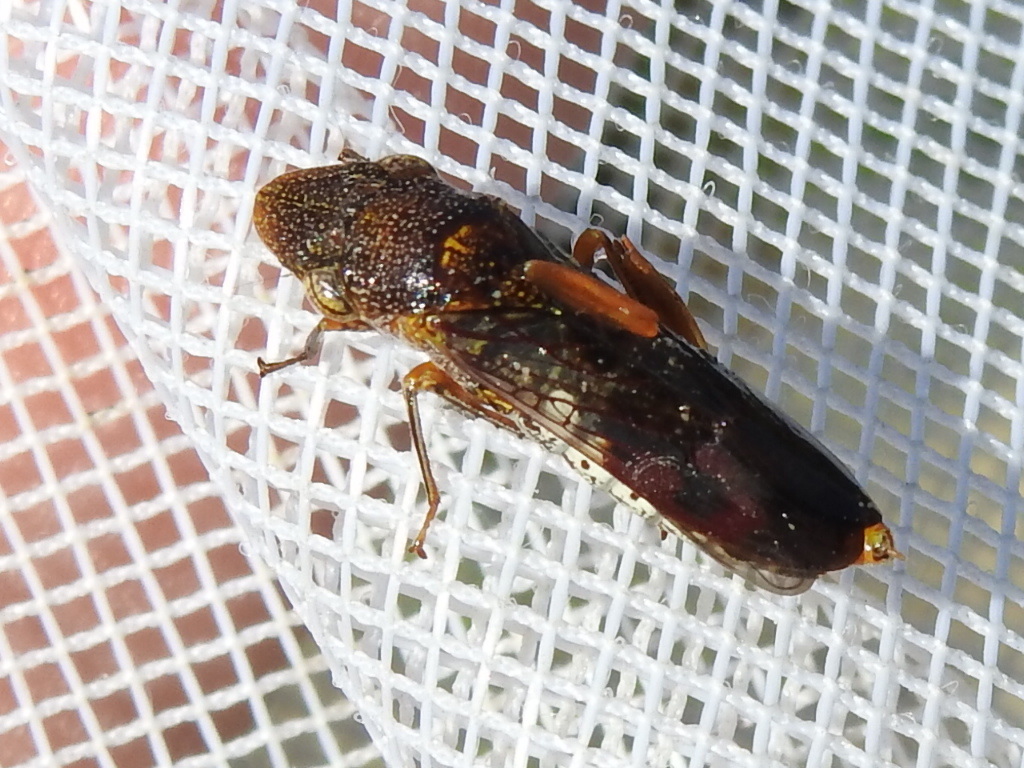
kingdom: Animalia
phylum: Arthropoda
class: Insecta
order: Hemiptera
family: Cicadellidae
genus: Homalodisca
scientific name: Homalodisca vitripennis
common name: Glassy-winged sharpshooter
